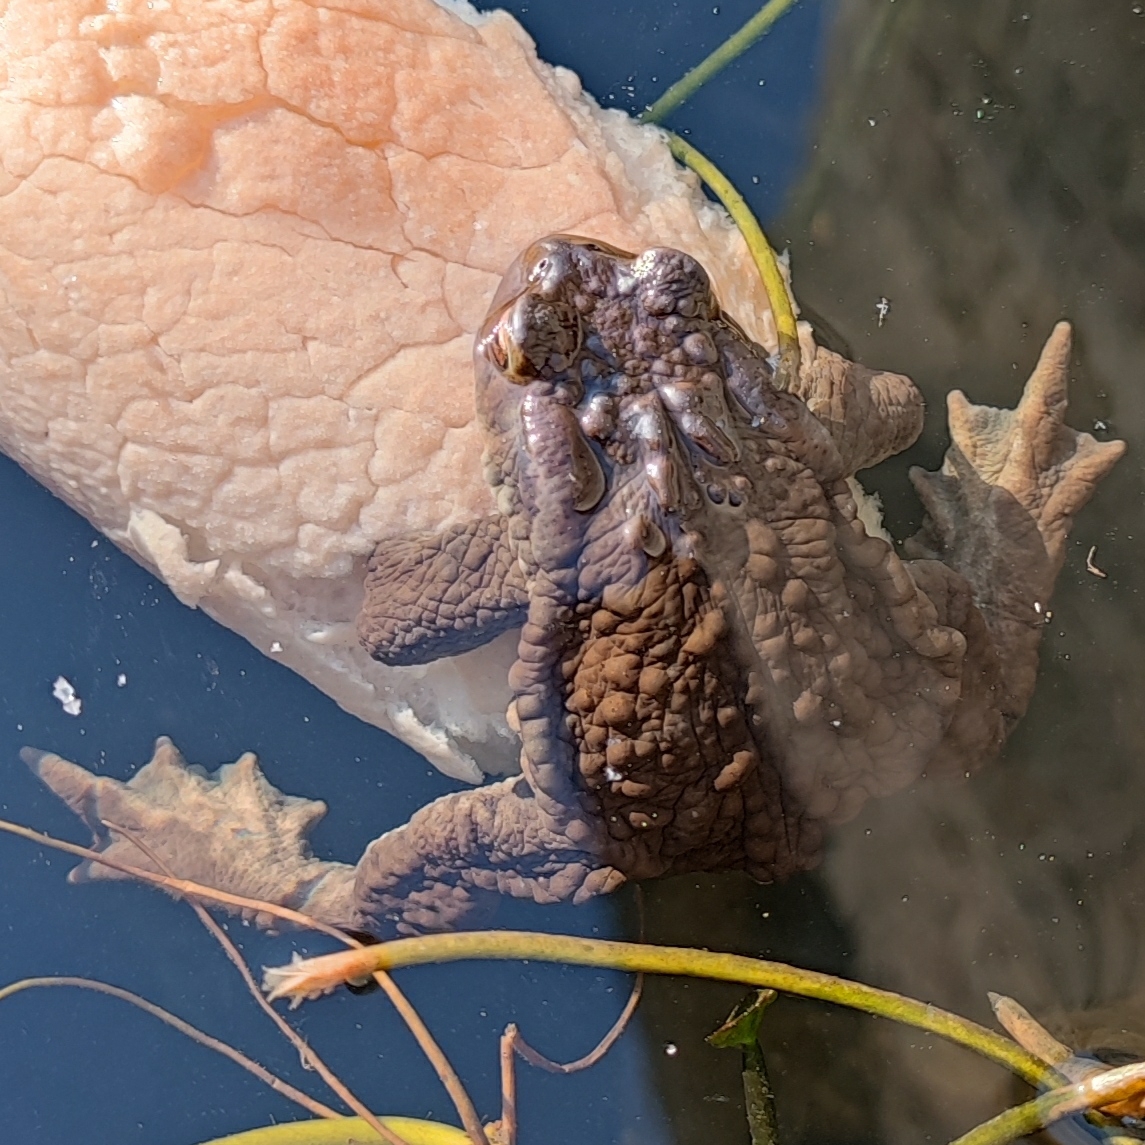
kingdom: Animalia
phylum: Chordata
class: Amphibia
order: Anura
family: Bufonidae
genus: Bufo
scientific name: Bufo spinosus
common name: Western common toad
